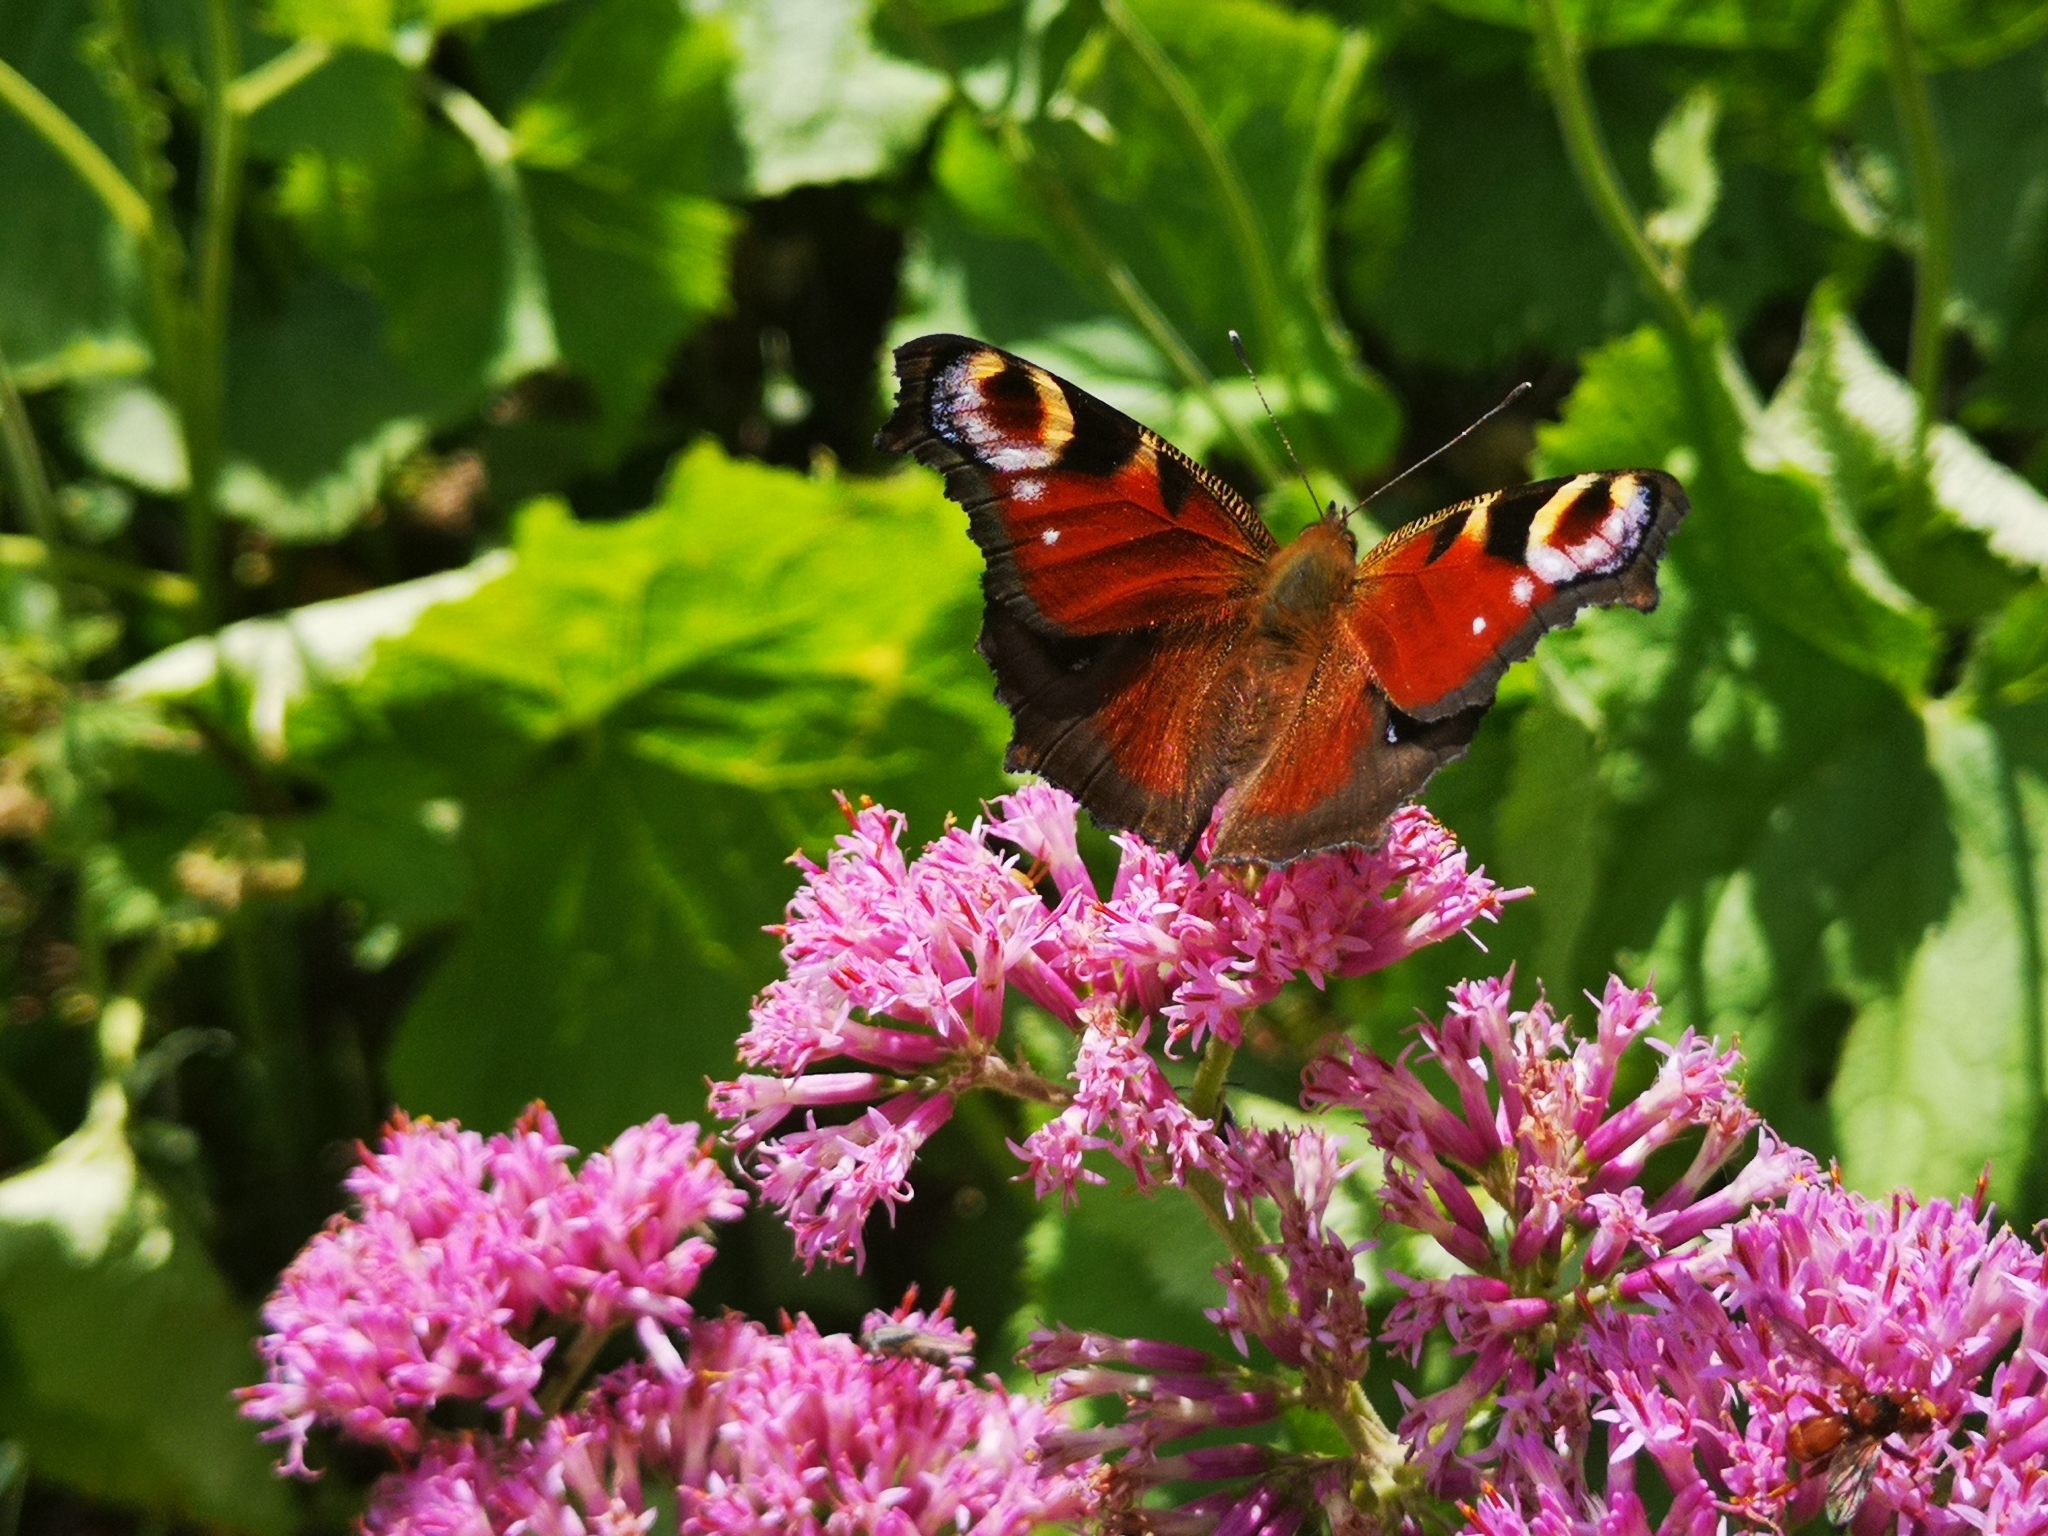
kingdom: Animalia
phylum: Arthropoda
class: Insecta
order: Lepidoptera
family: Nymphalidae
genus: Aglais
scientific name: Aglais io
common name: Peacock
